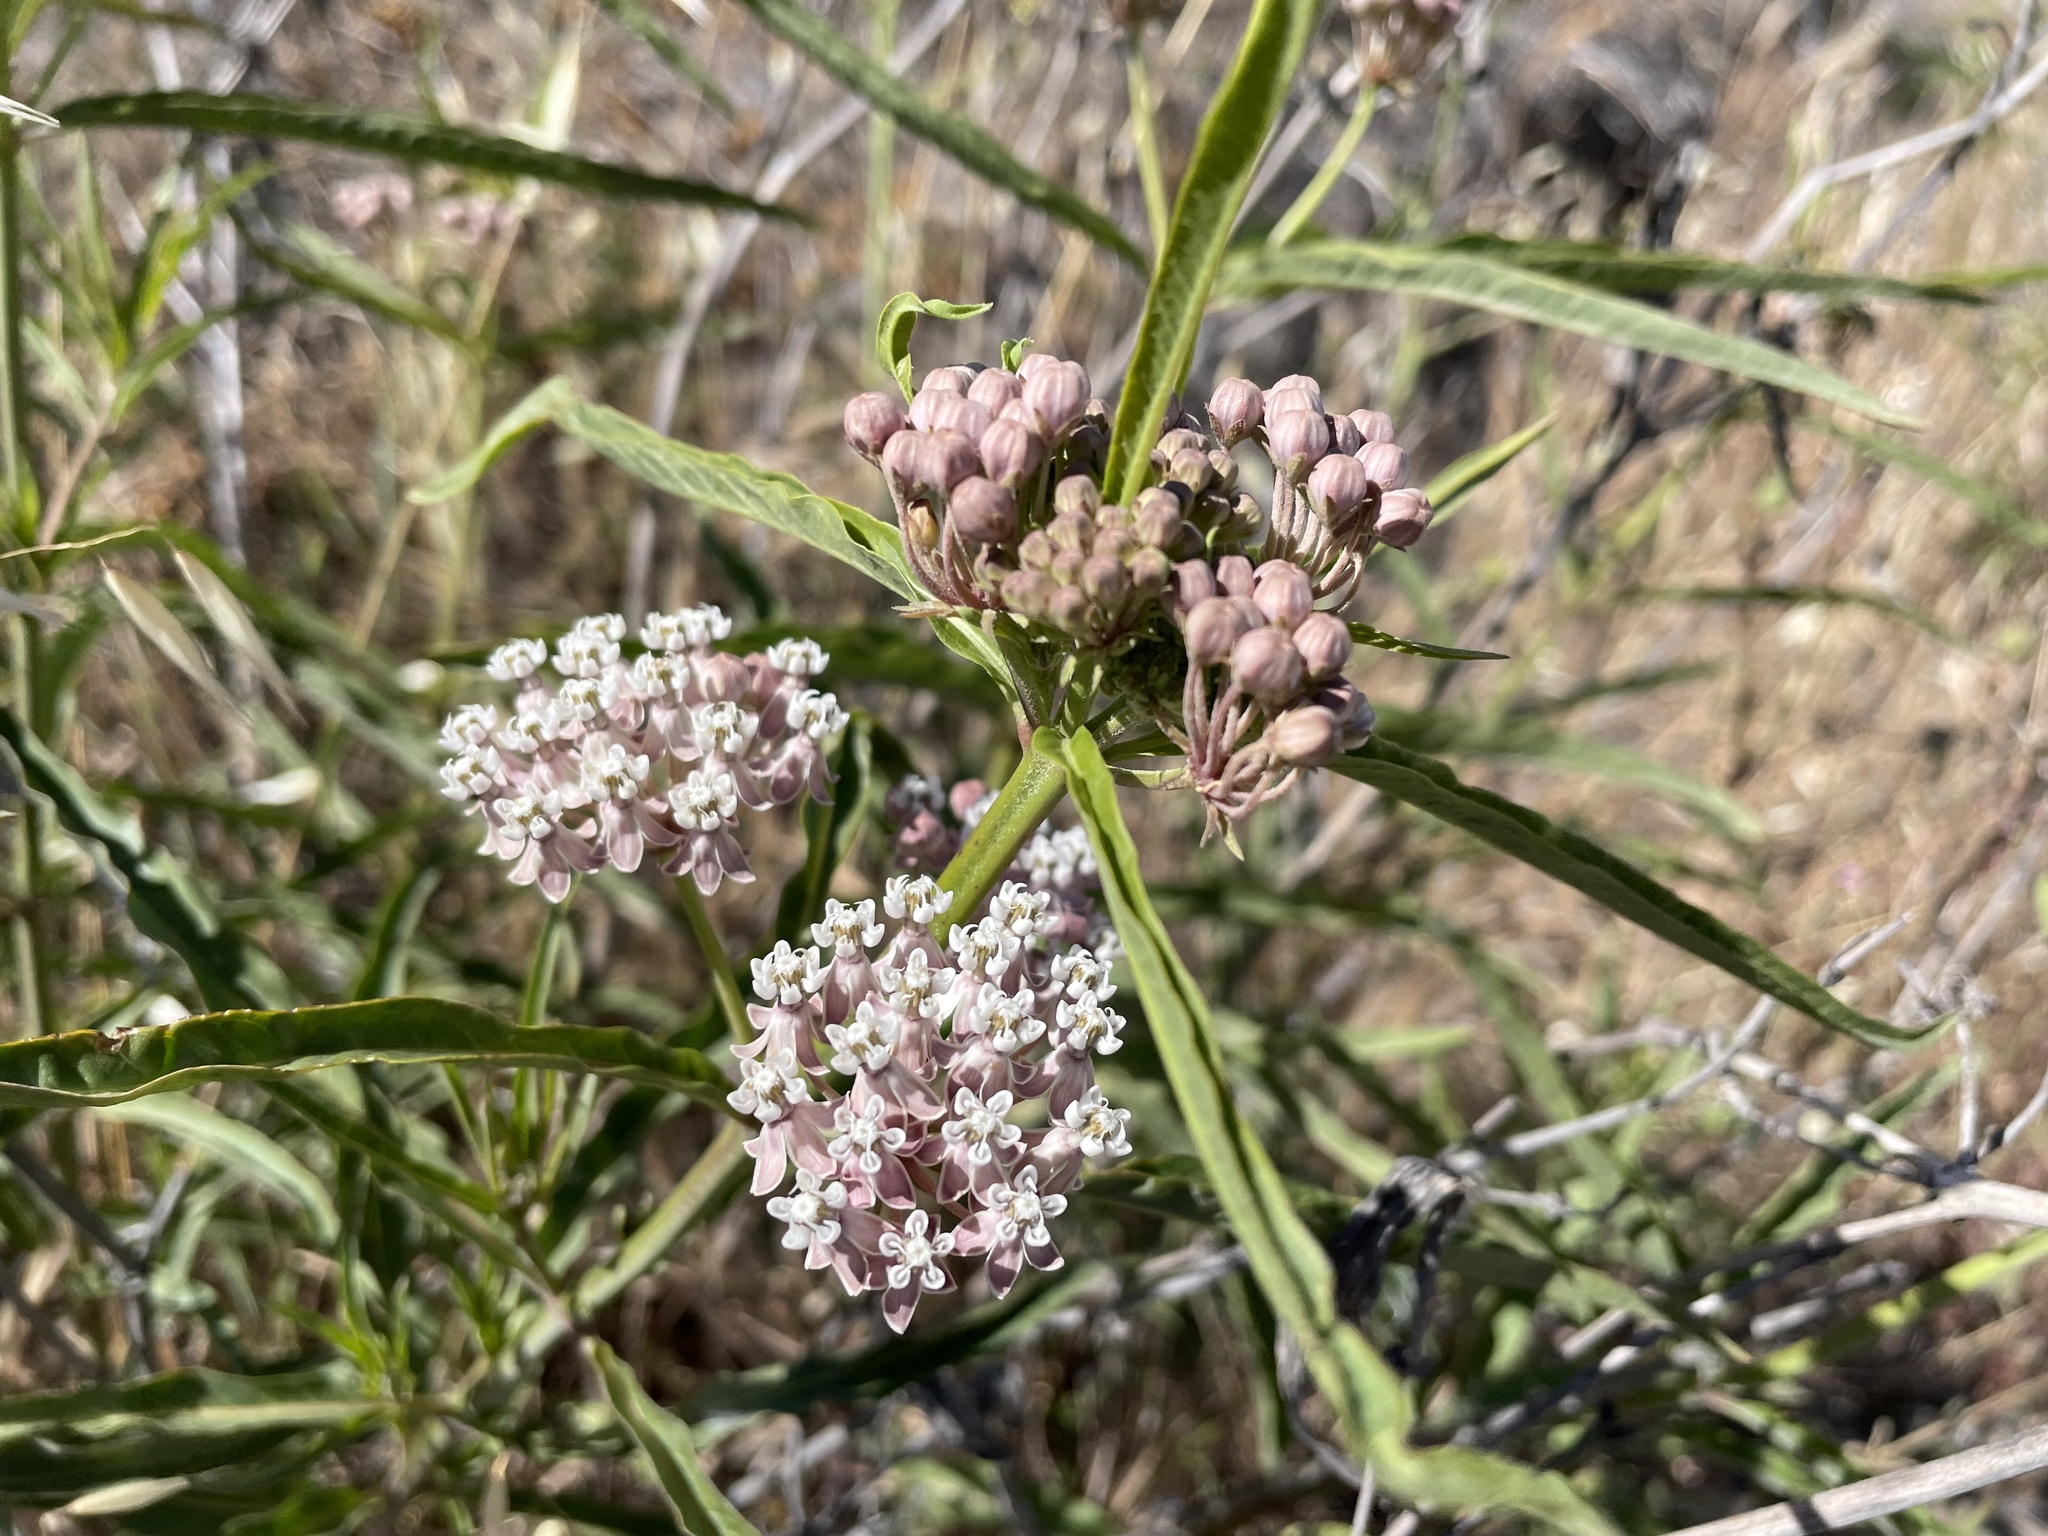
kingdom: Plantae
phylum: Tracheophyta
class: Magnoliopsida
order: Gentianales
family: Apocynaceae
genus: Asclepias
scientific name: Asclepias fascicularis
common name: Mexican milkweed
